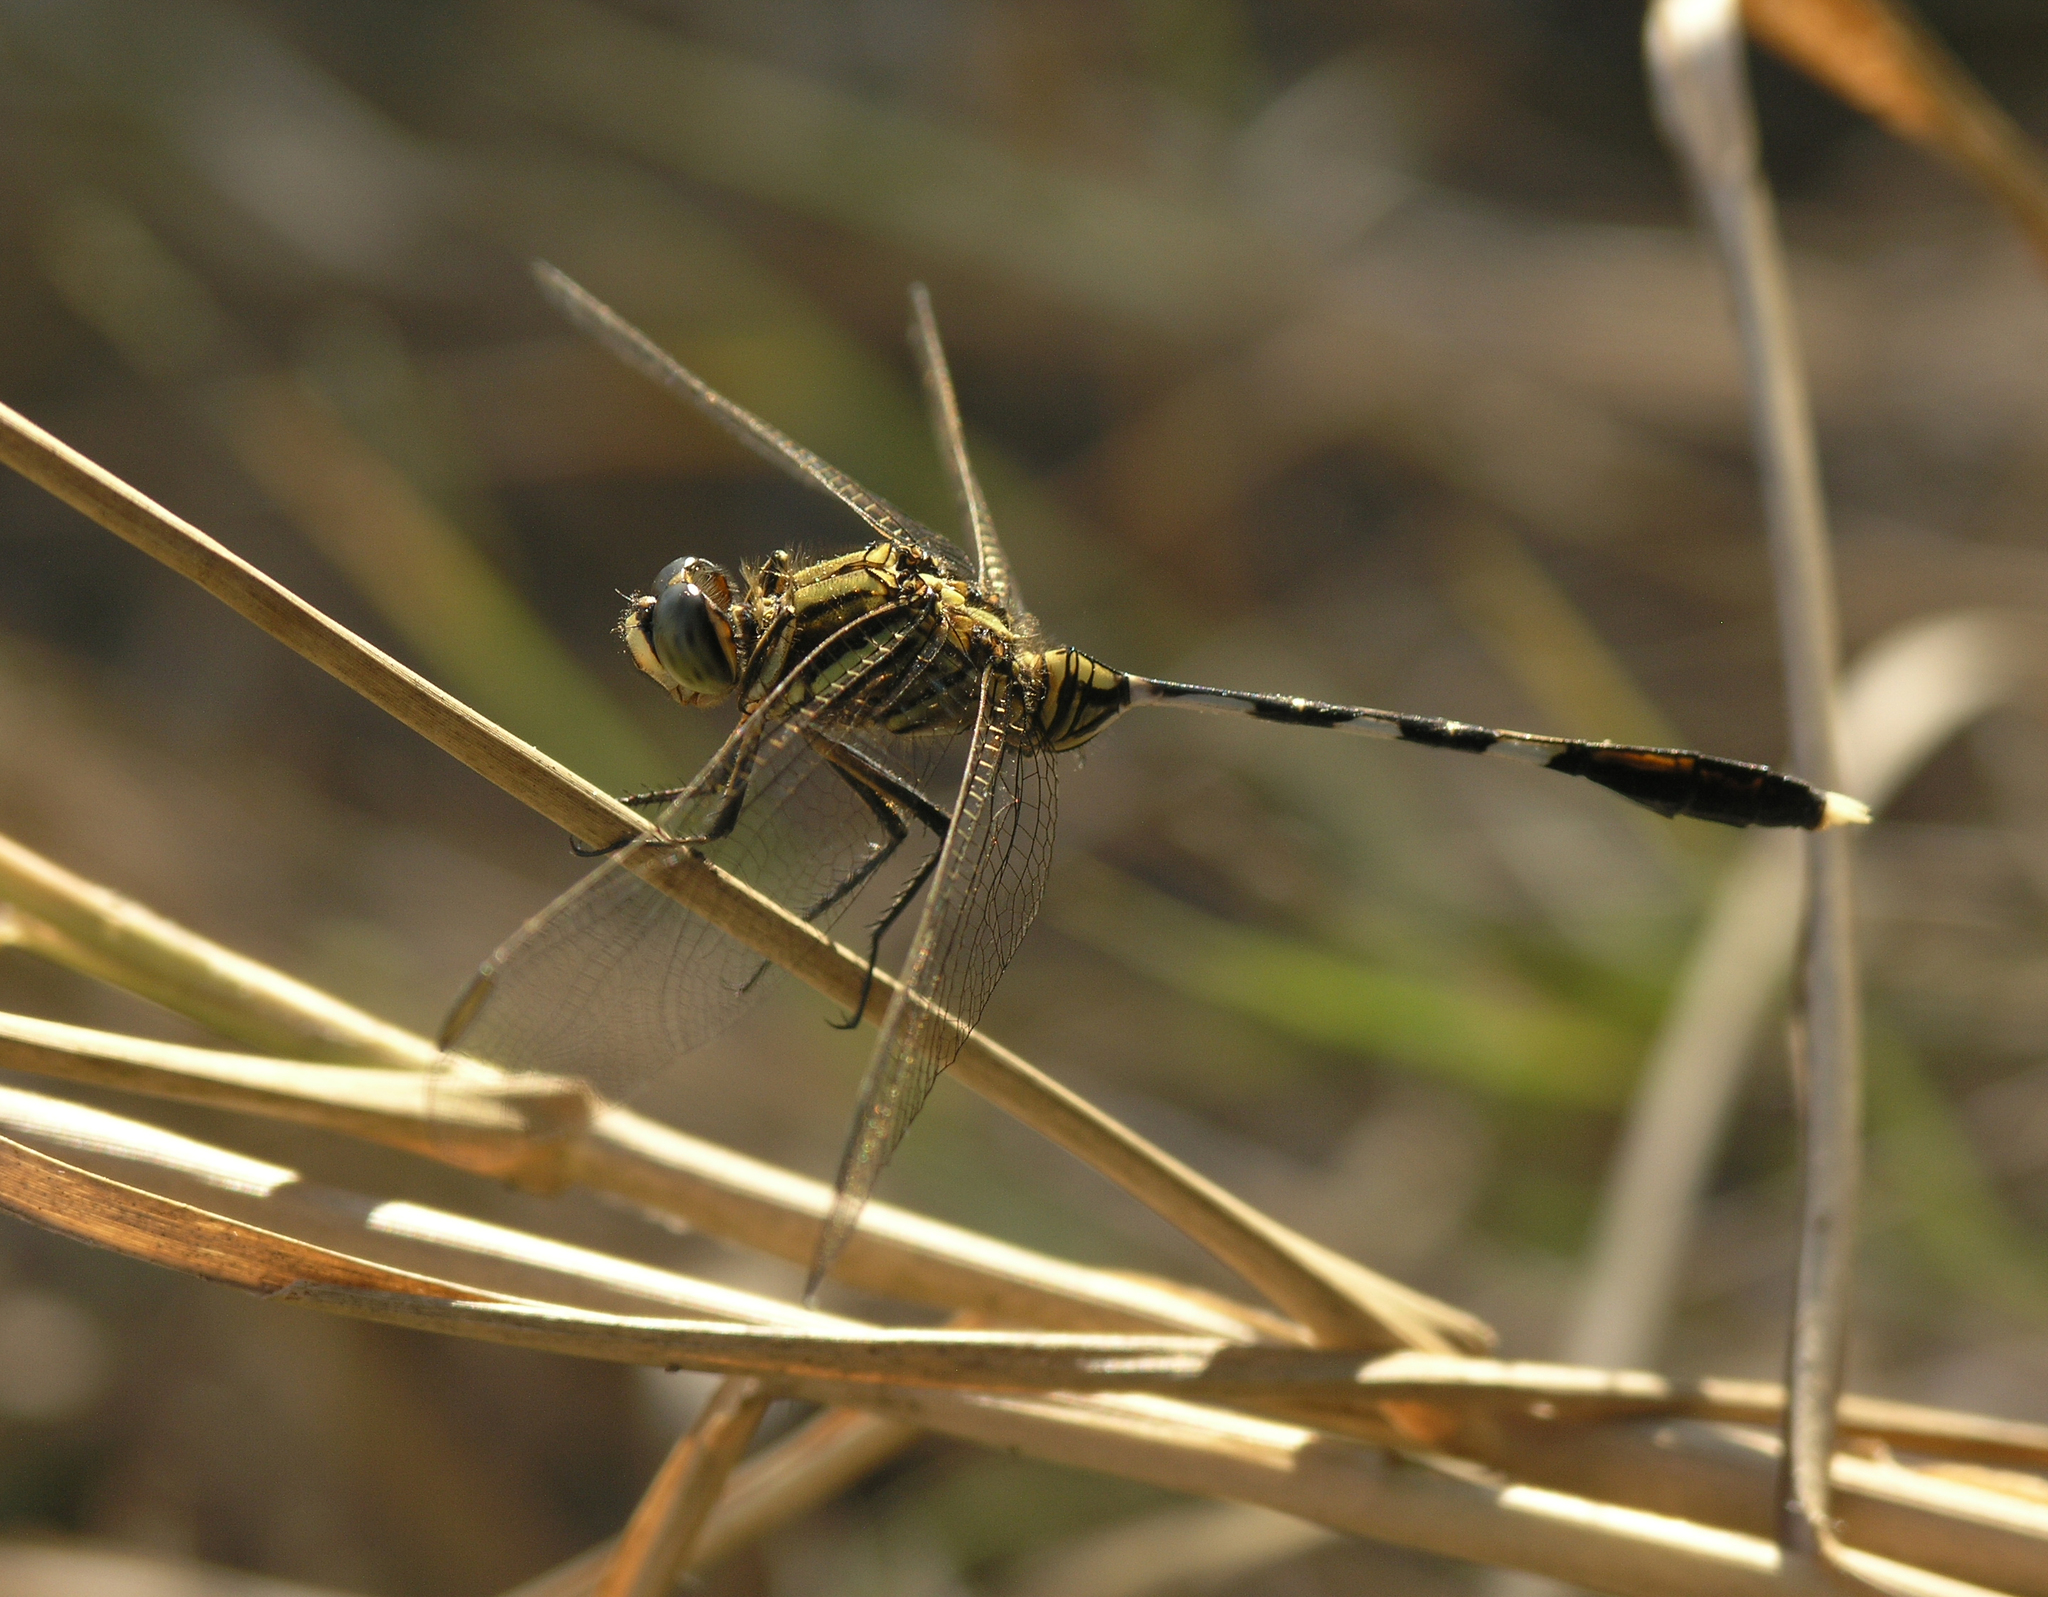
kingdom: Animalia
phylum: Arthropoda
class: Insecta
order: Odonata
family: Libellulidae
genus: Orthetrum
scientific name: Orthetrum sabina
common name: Slender skimmer
